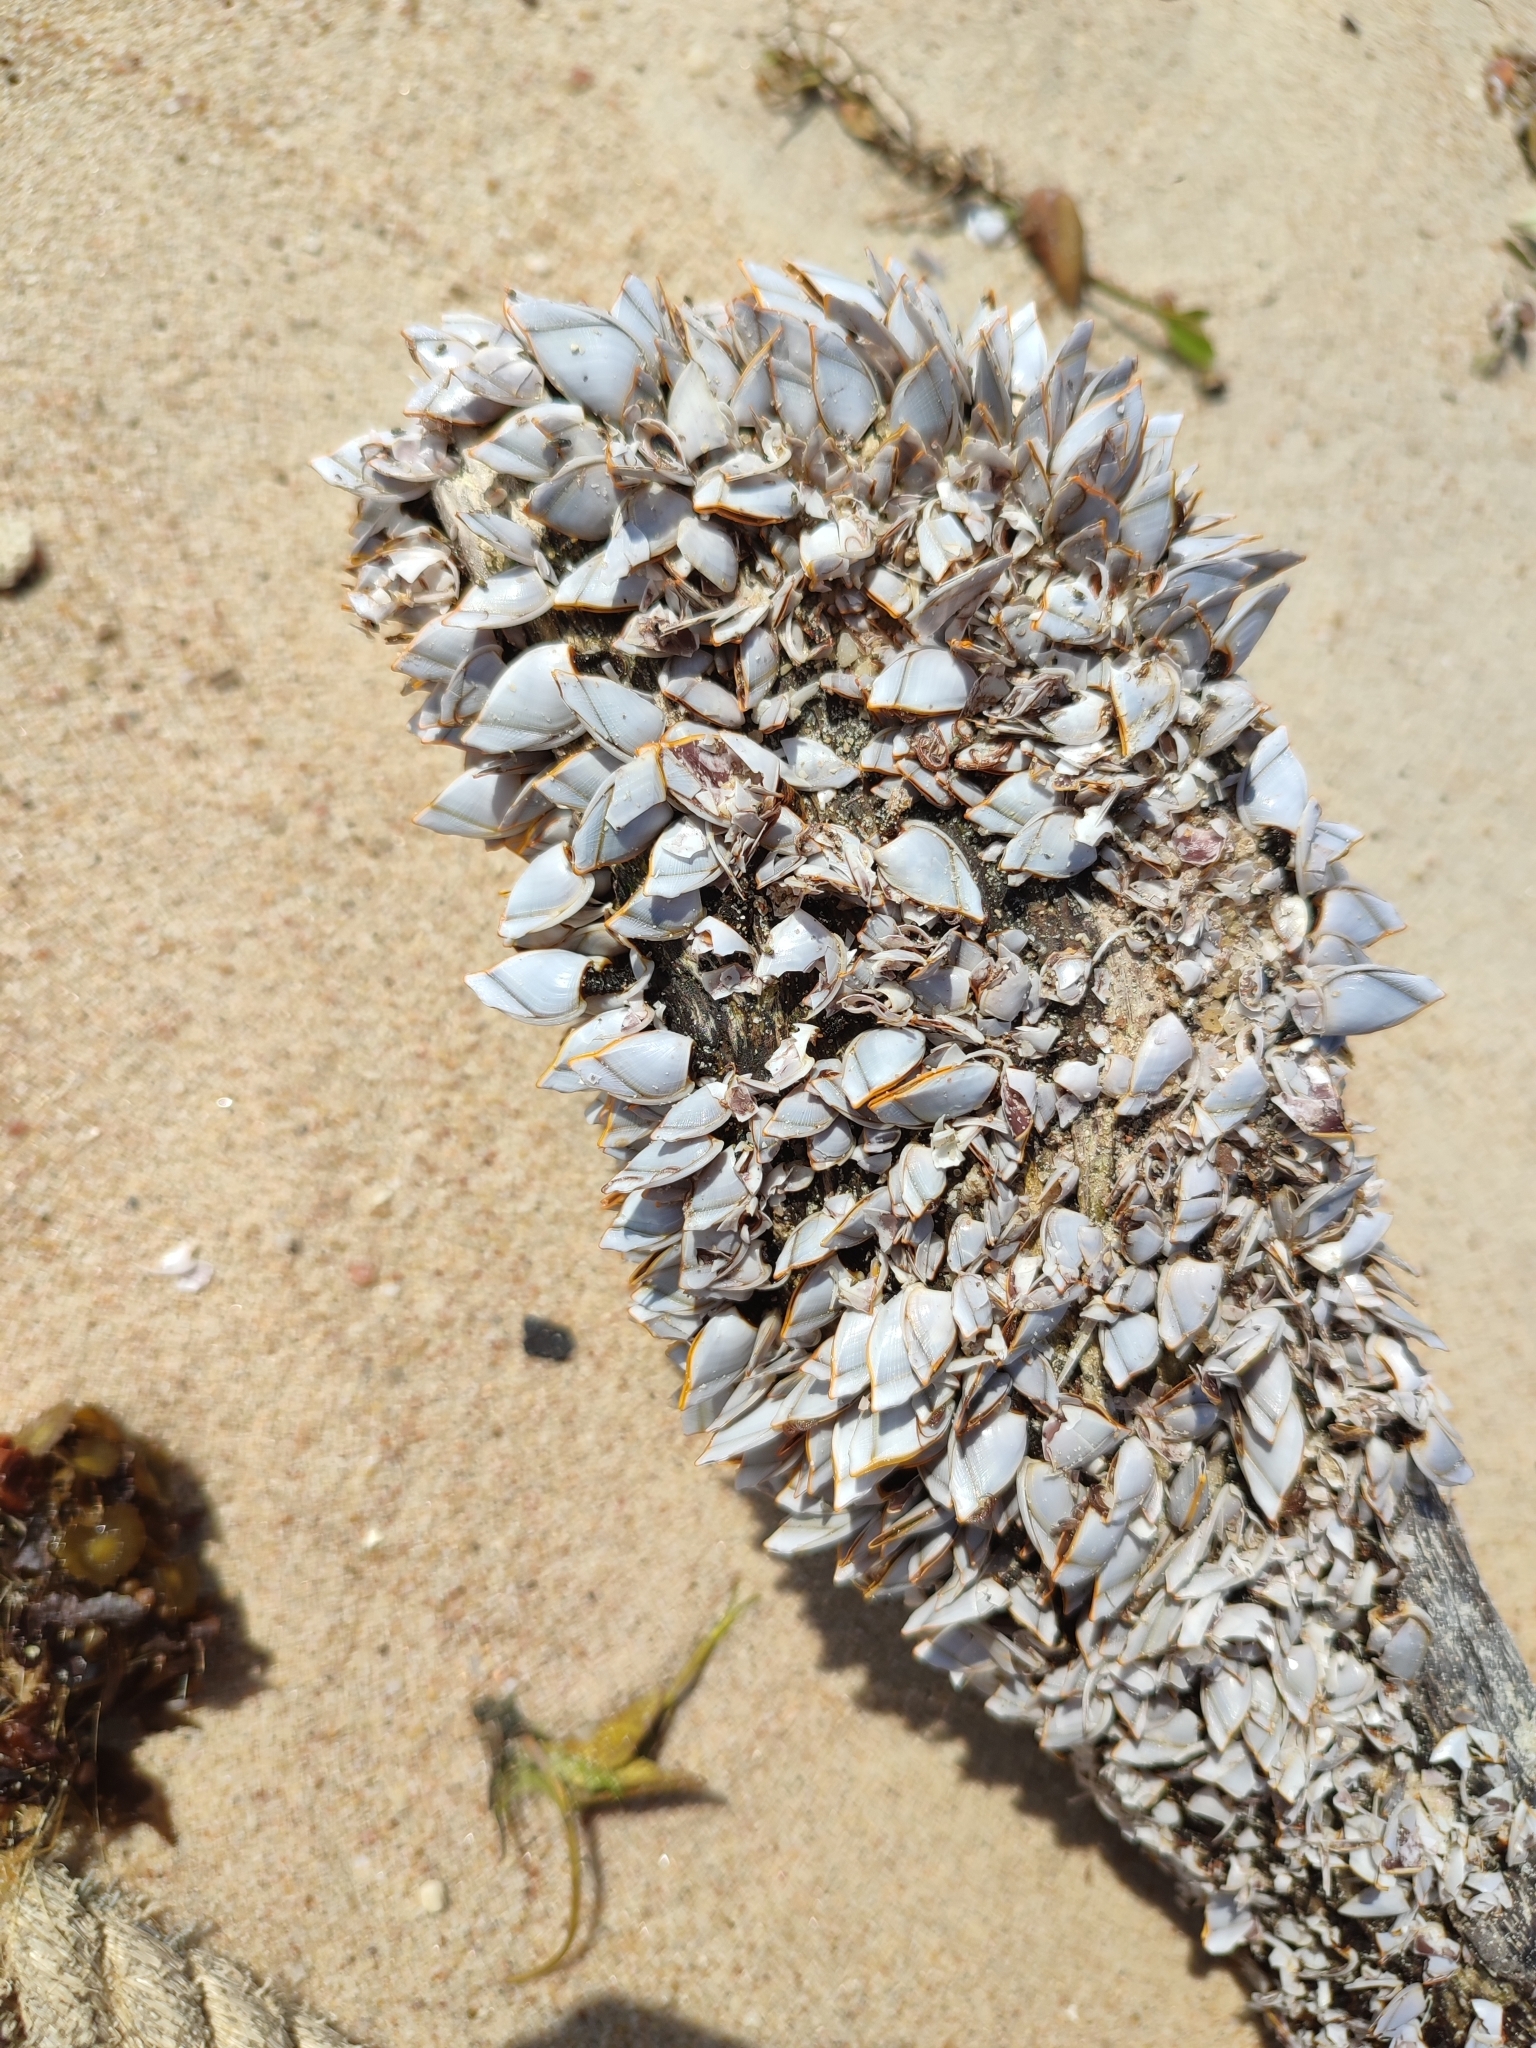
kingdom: Animalia
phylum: Arthropoda
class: Maxillopoda
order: Pedunculata
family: Lepadidae
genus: Lepas
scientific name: Lepas anserifera
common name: Goose barnacle
